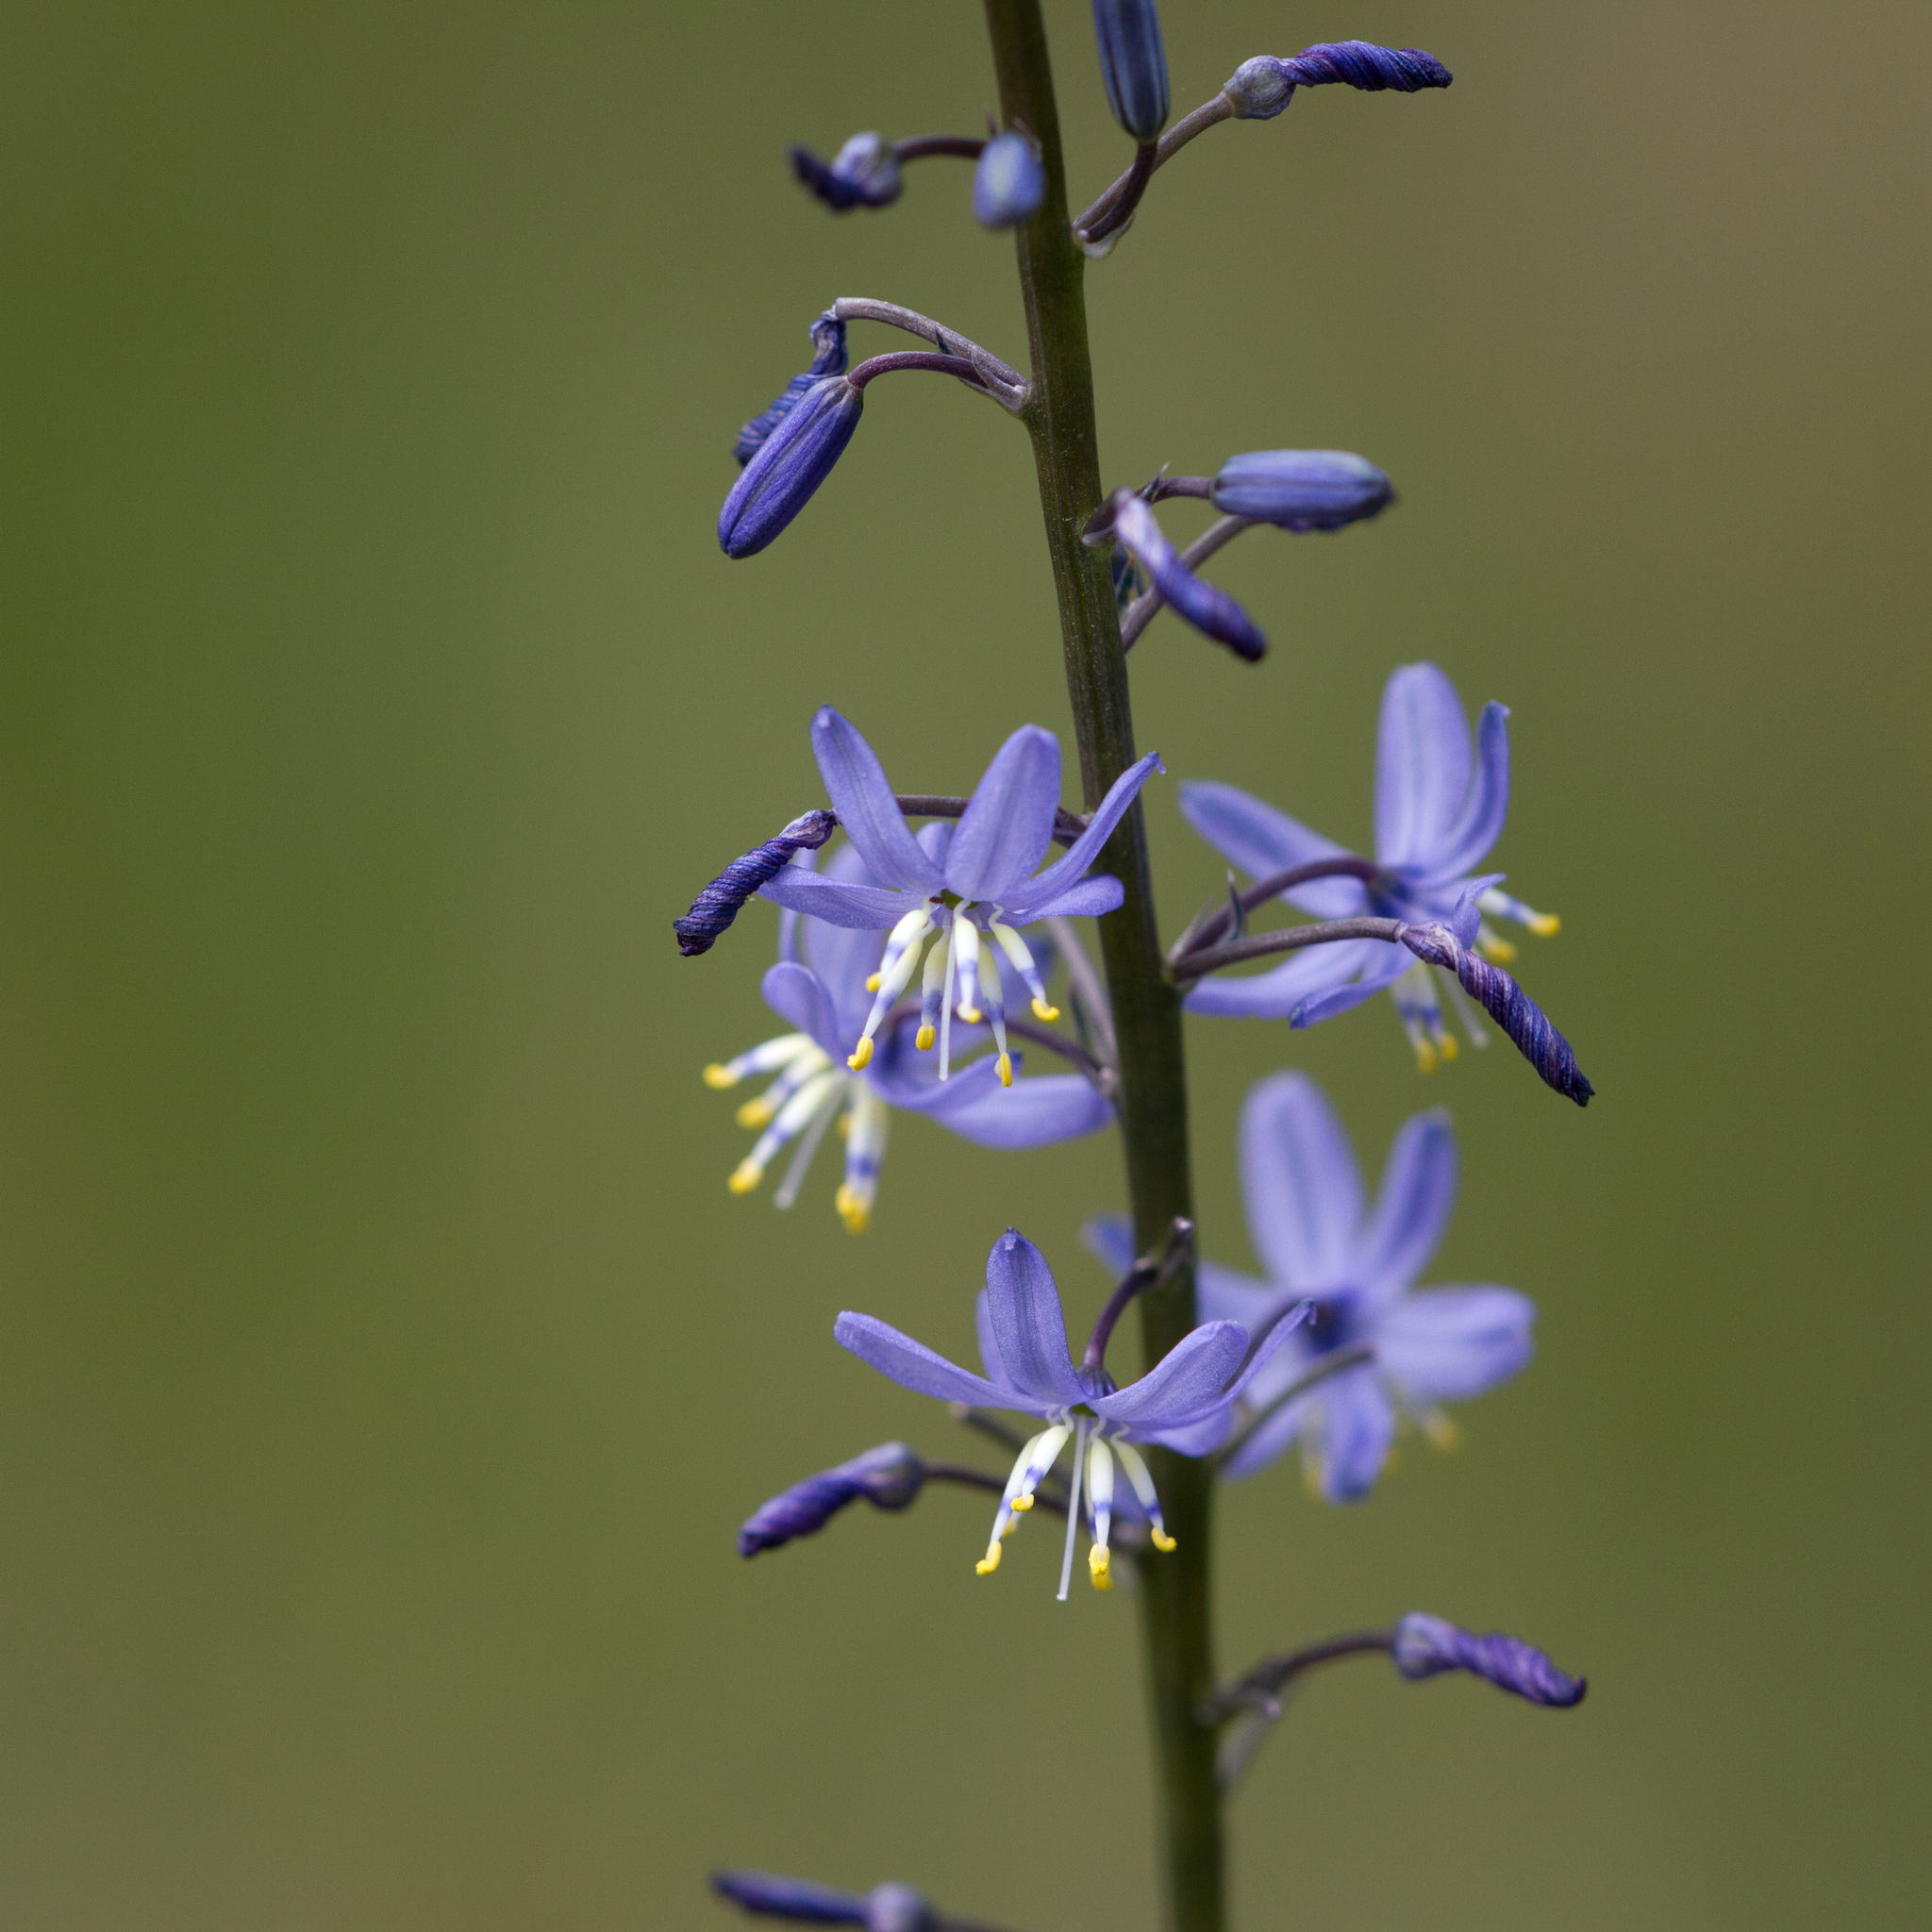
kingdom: Plantae
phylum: Tracheophyta
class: Liliopsida
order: Asparagales
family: Asphodelaceae
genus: Caesia
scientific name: Caesia calliantha
